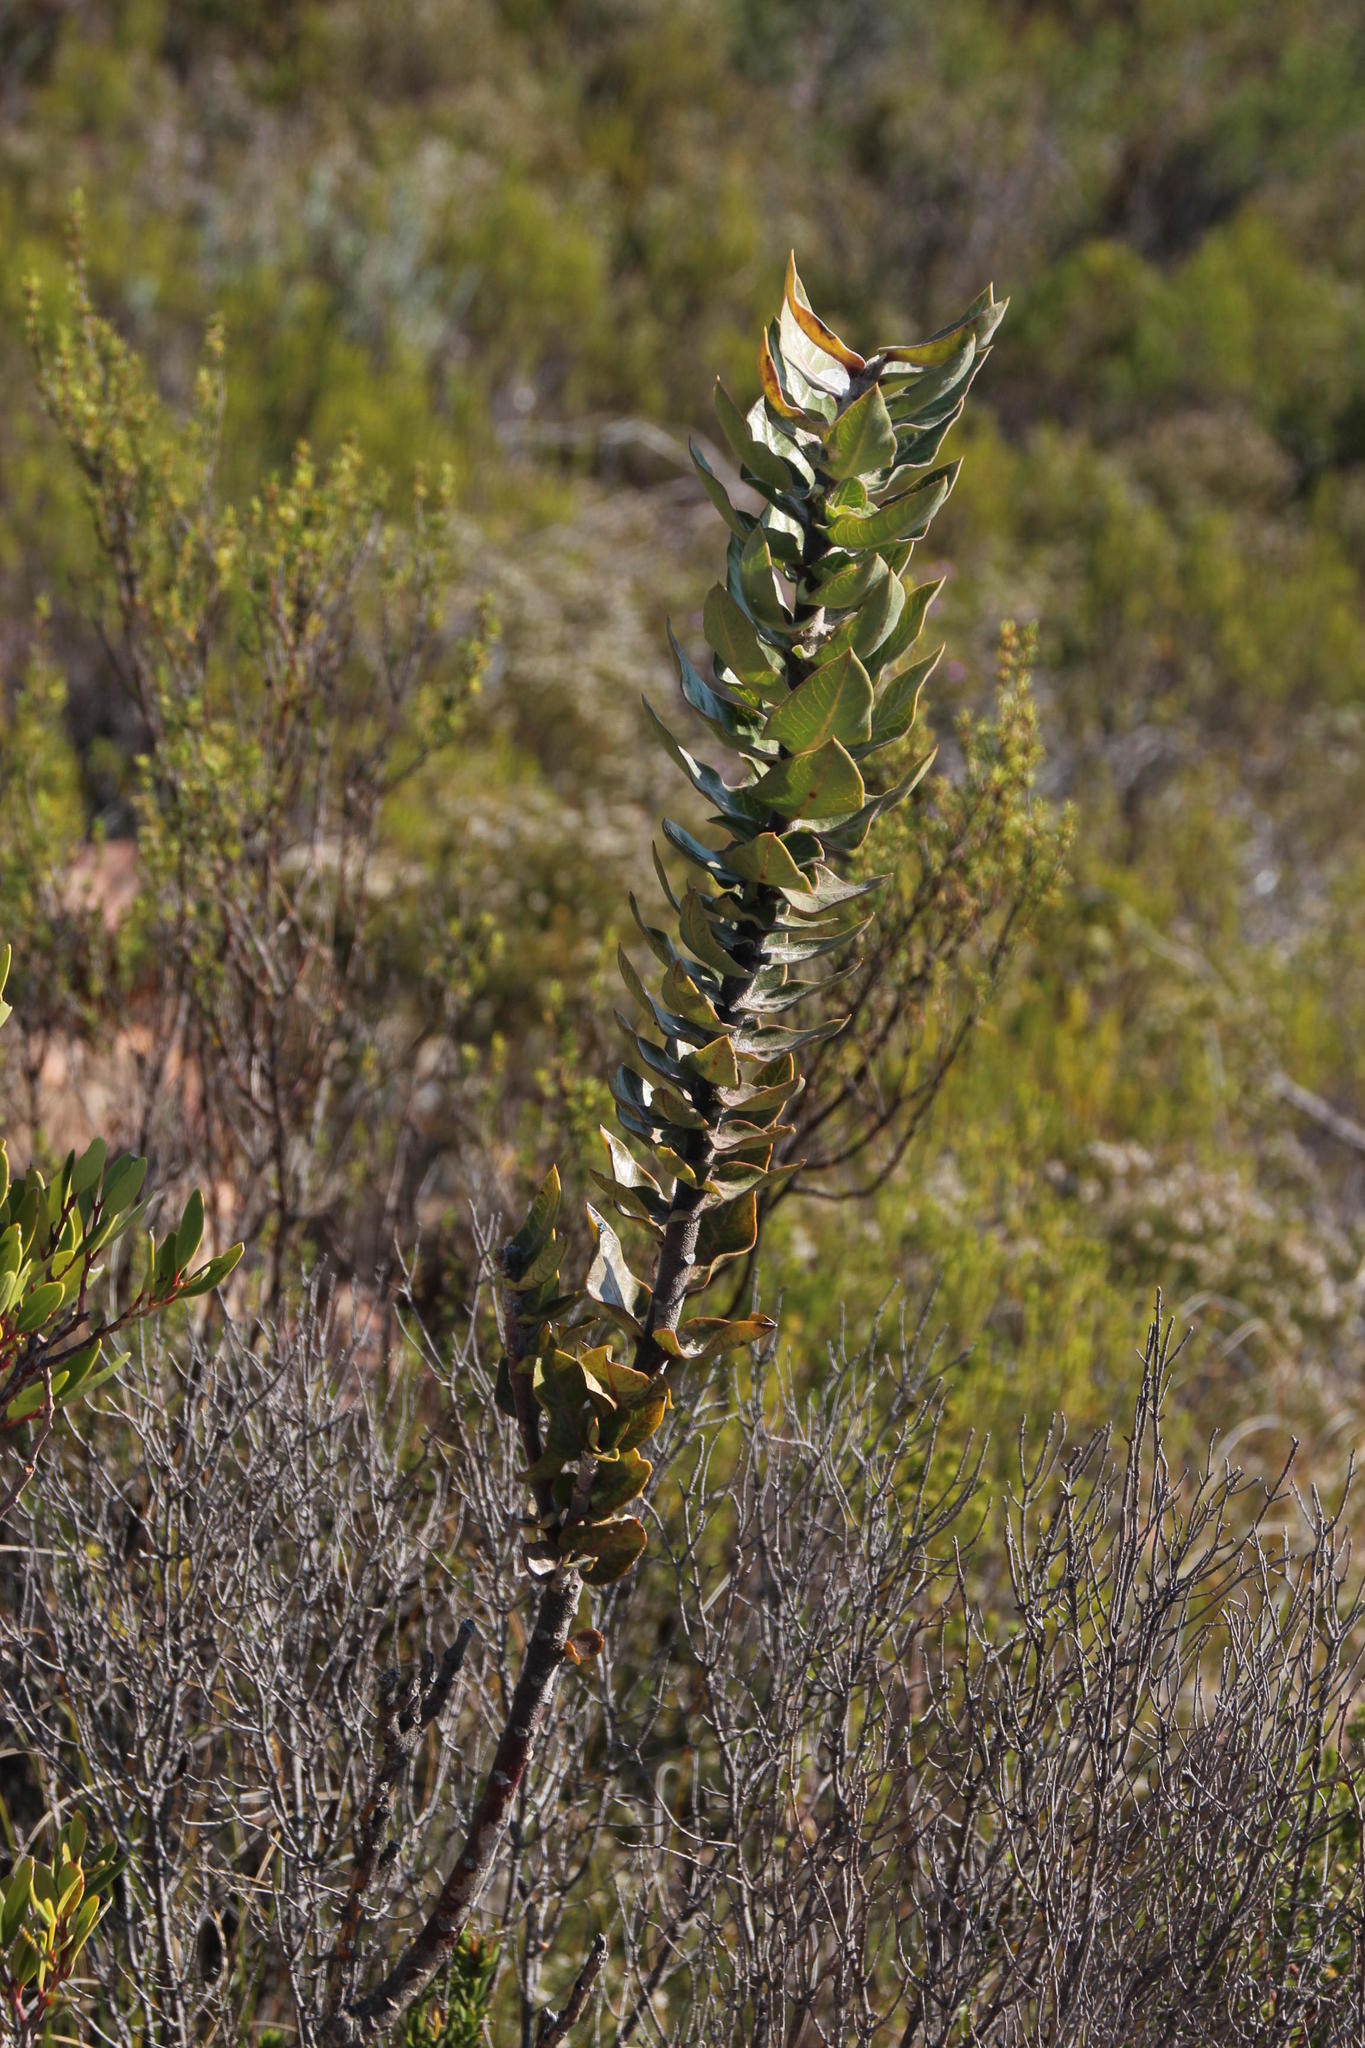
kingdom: Plantae
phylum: Tracheophyta
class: Magnoliopsida
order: Gentianales
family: Apocynaceae
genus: Gomphocarpus
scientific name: Gomphocarpus cancellatus
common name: Wild cotton
